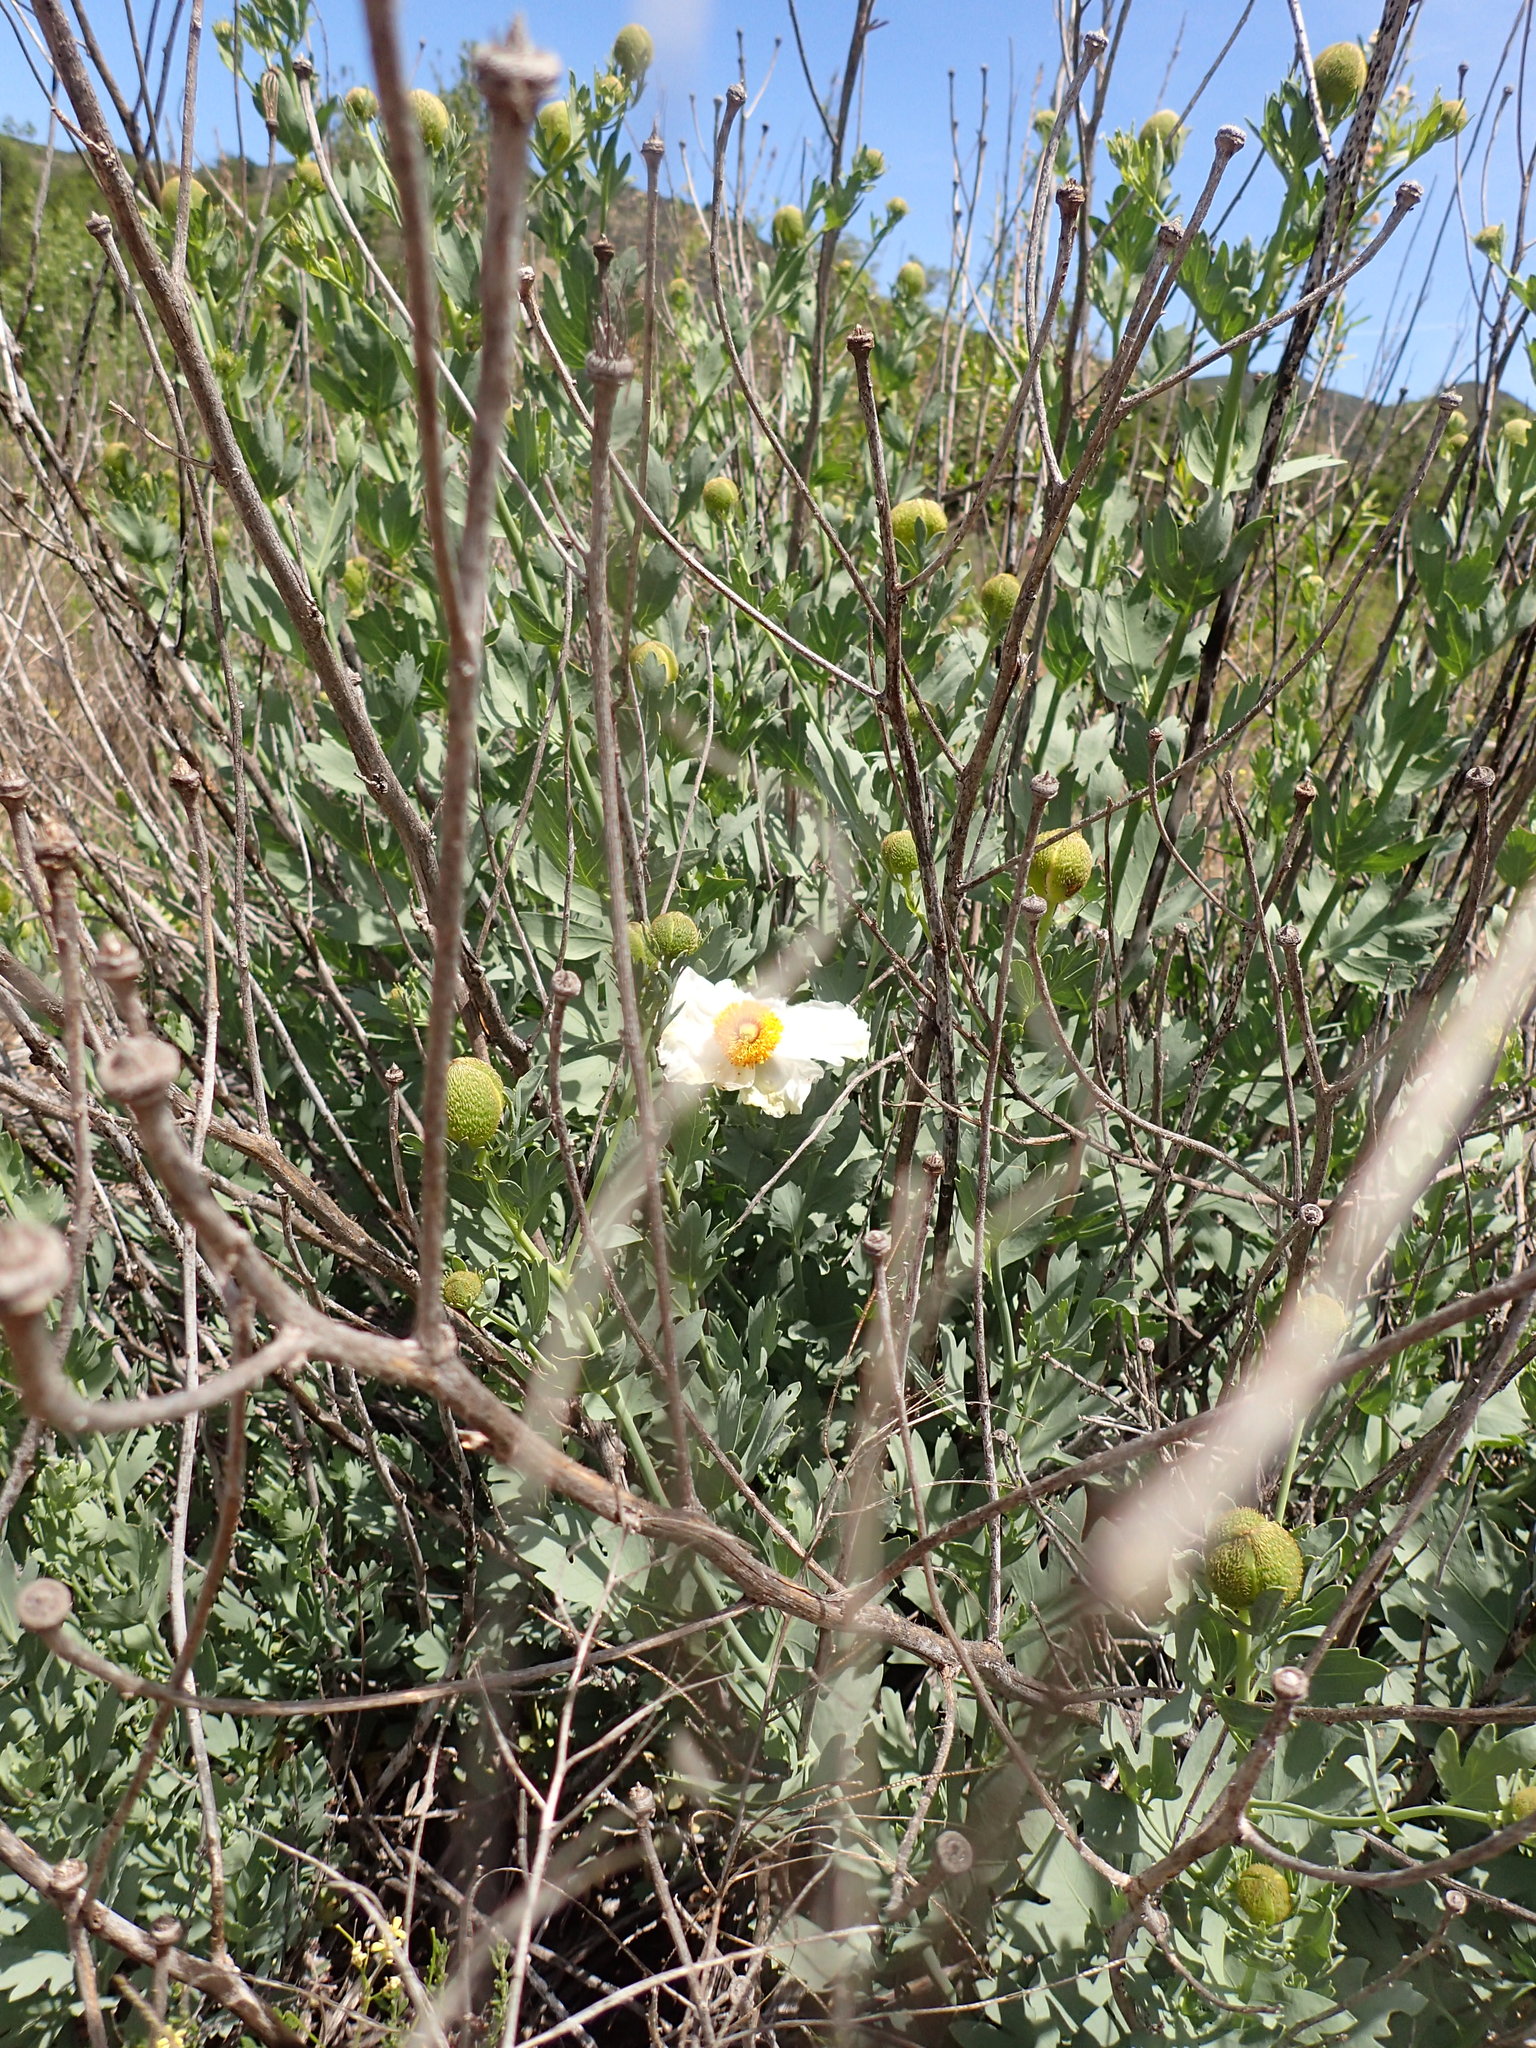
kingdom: Plantae
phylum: Tracheophyta
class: Magnoliopsida
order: Ranunculales
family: Papaveraceae
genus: Romneya
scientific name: Romneya trichocalyx
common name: Hairy matilija-poppy
